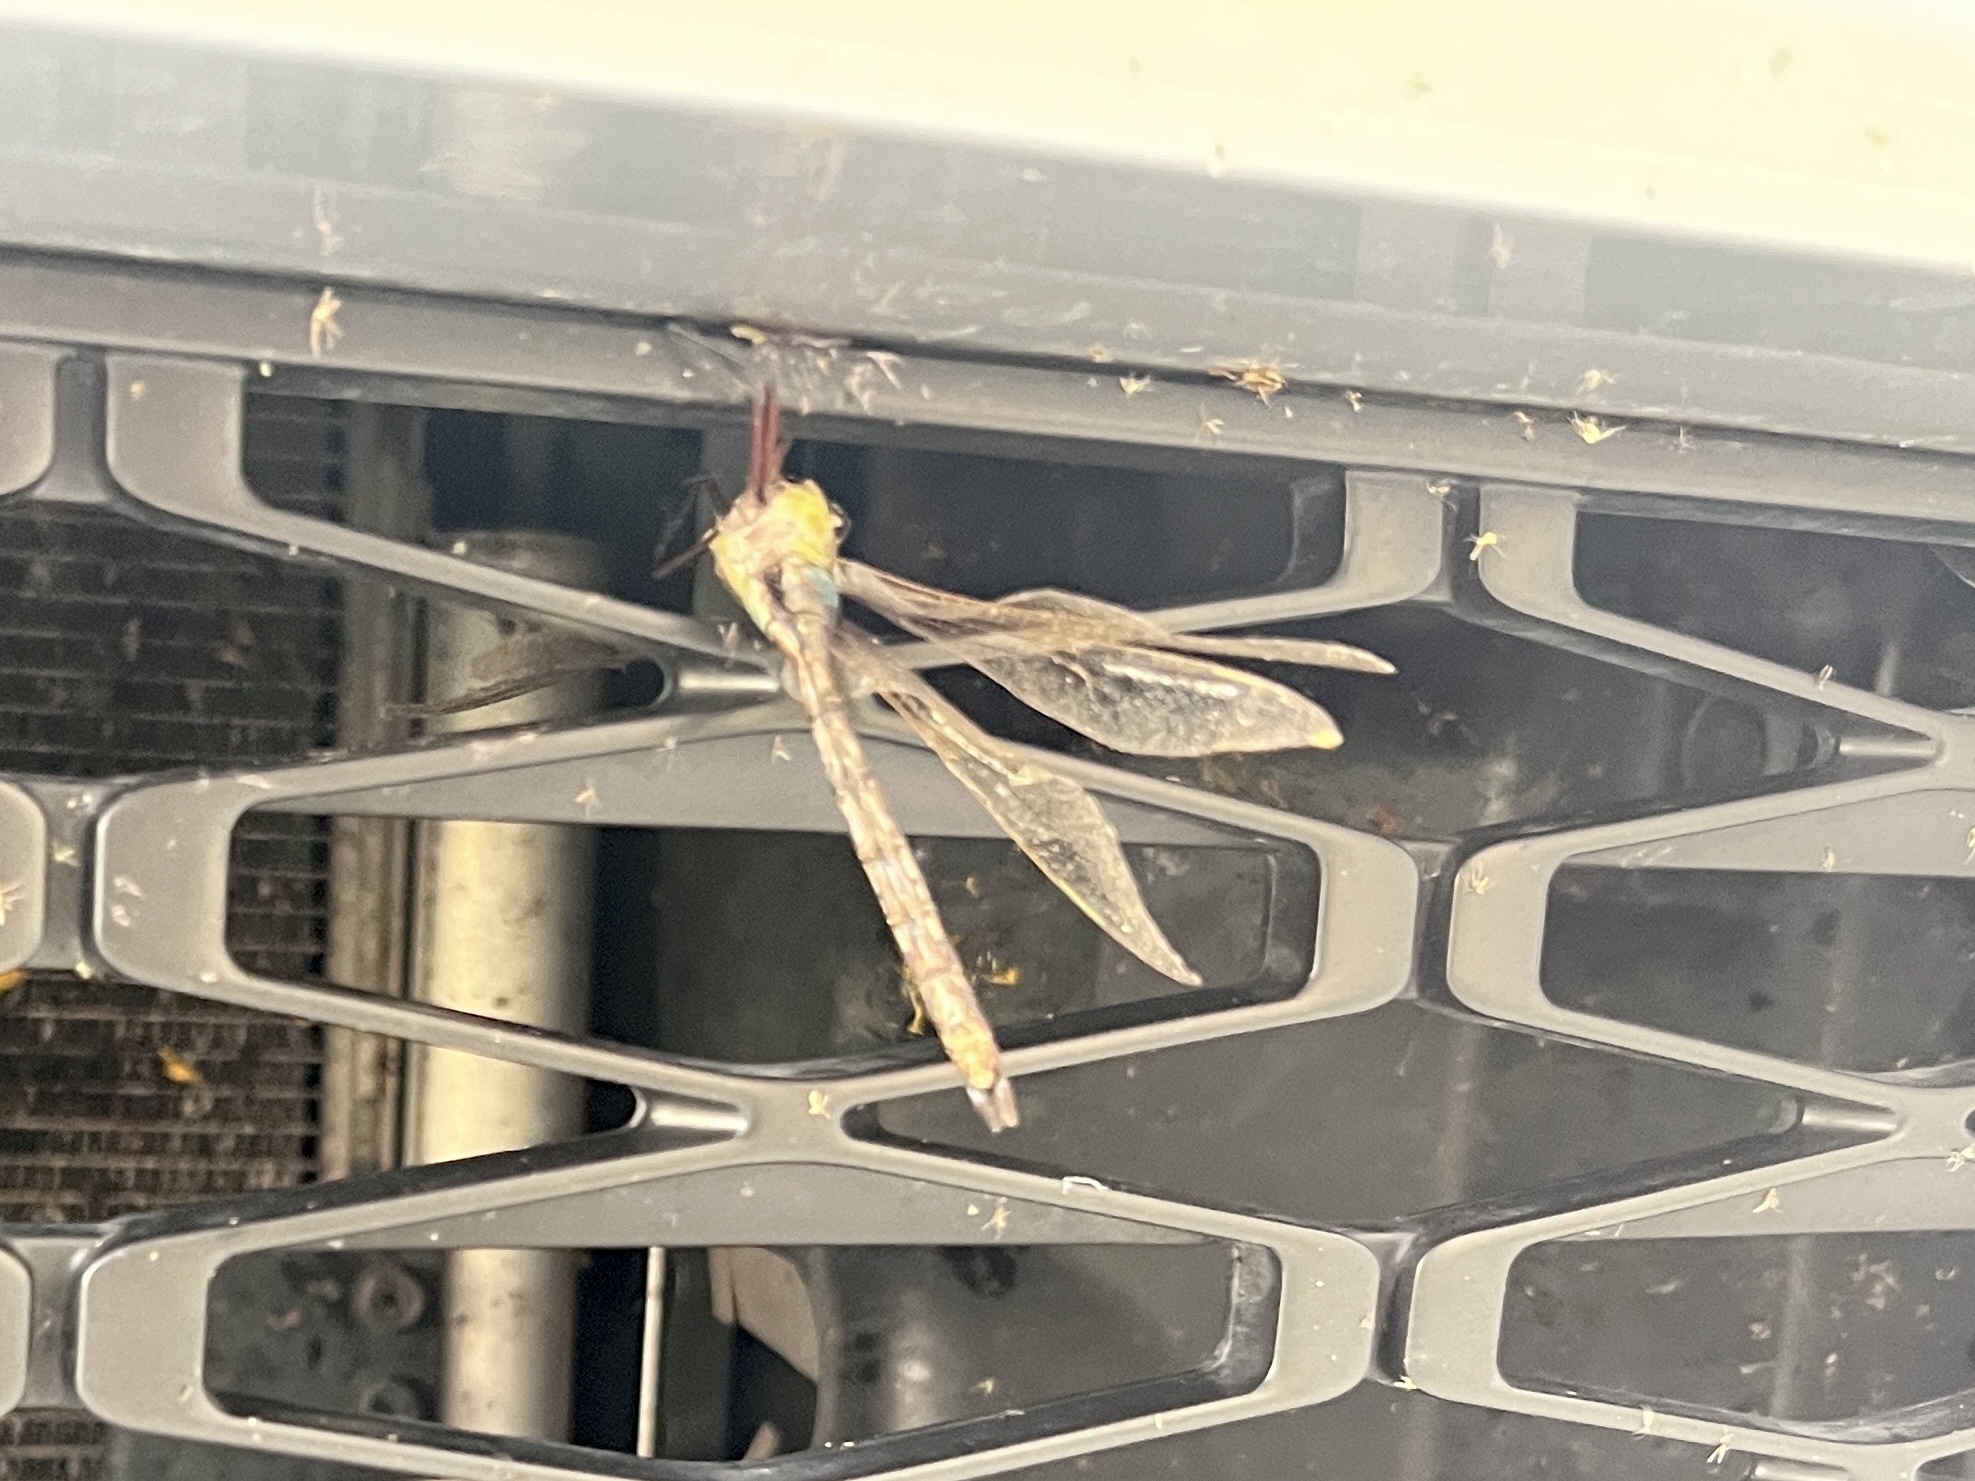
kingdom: Animalia
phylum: Arthropoda
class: Insecta
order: Odonata
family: Aeshnidae
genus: Anax
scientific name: Anax junius
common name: Common green darner
